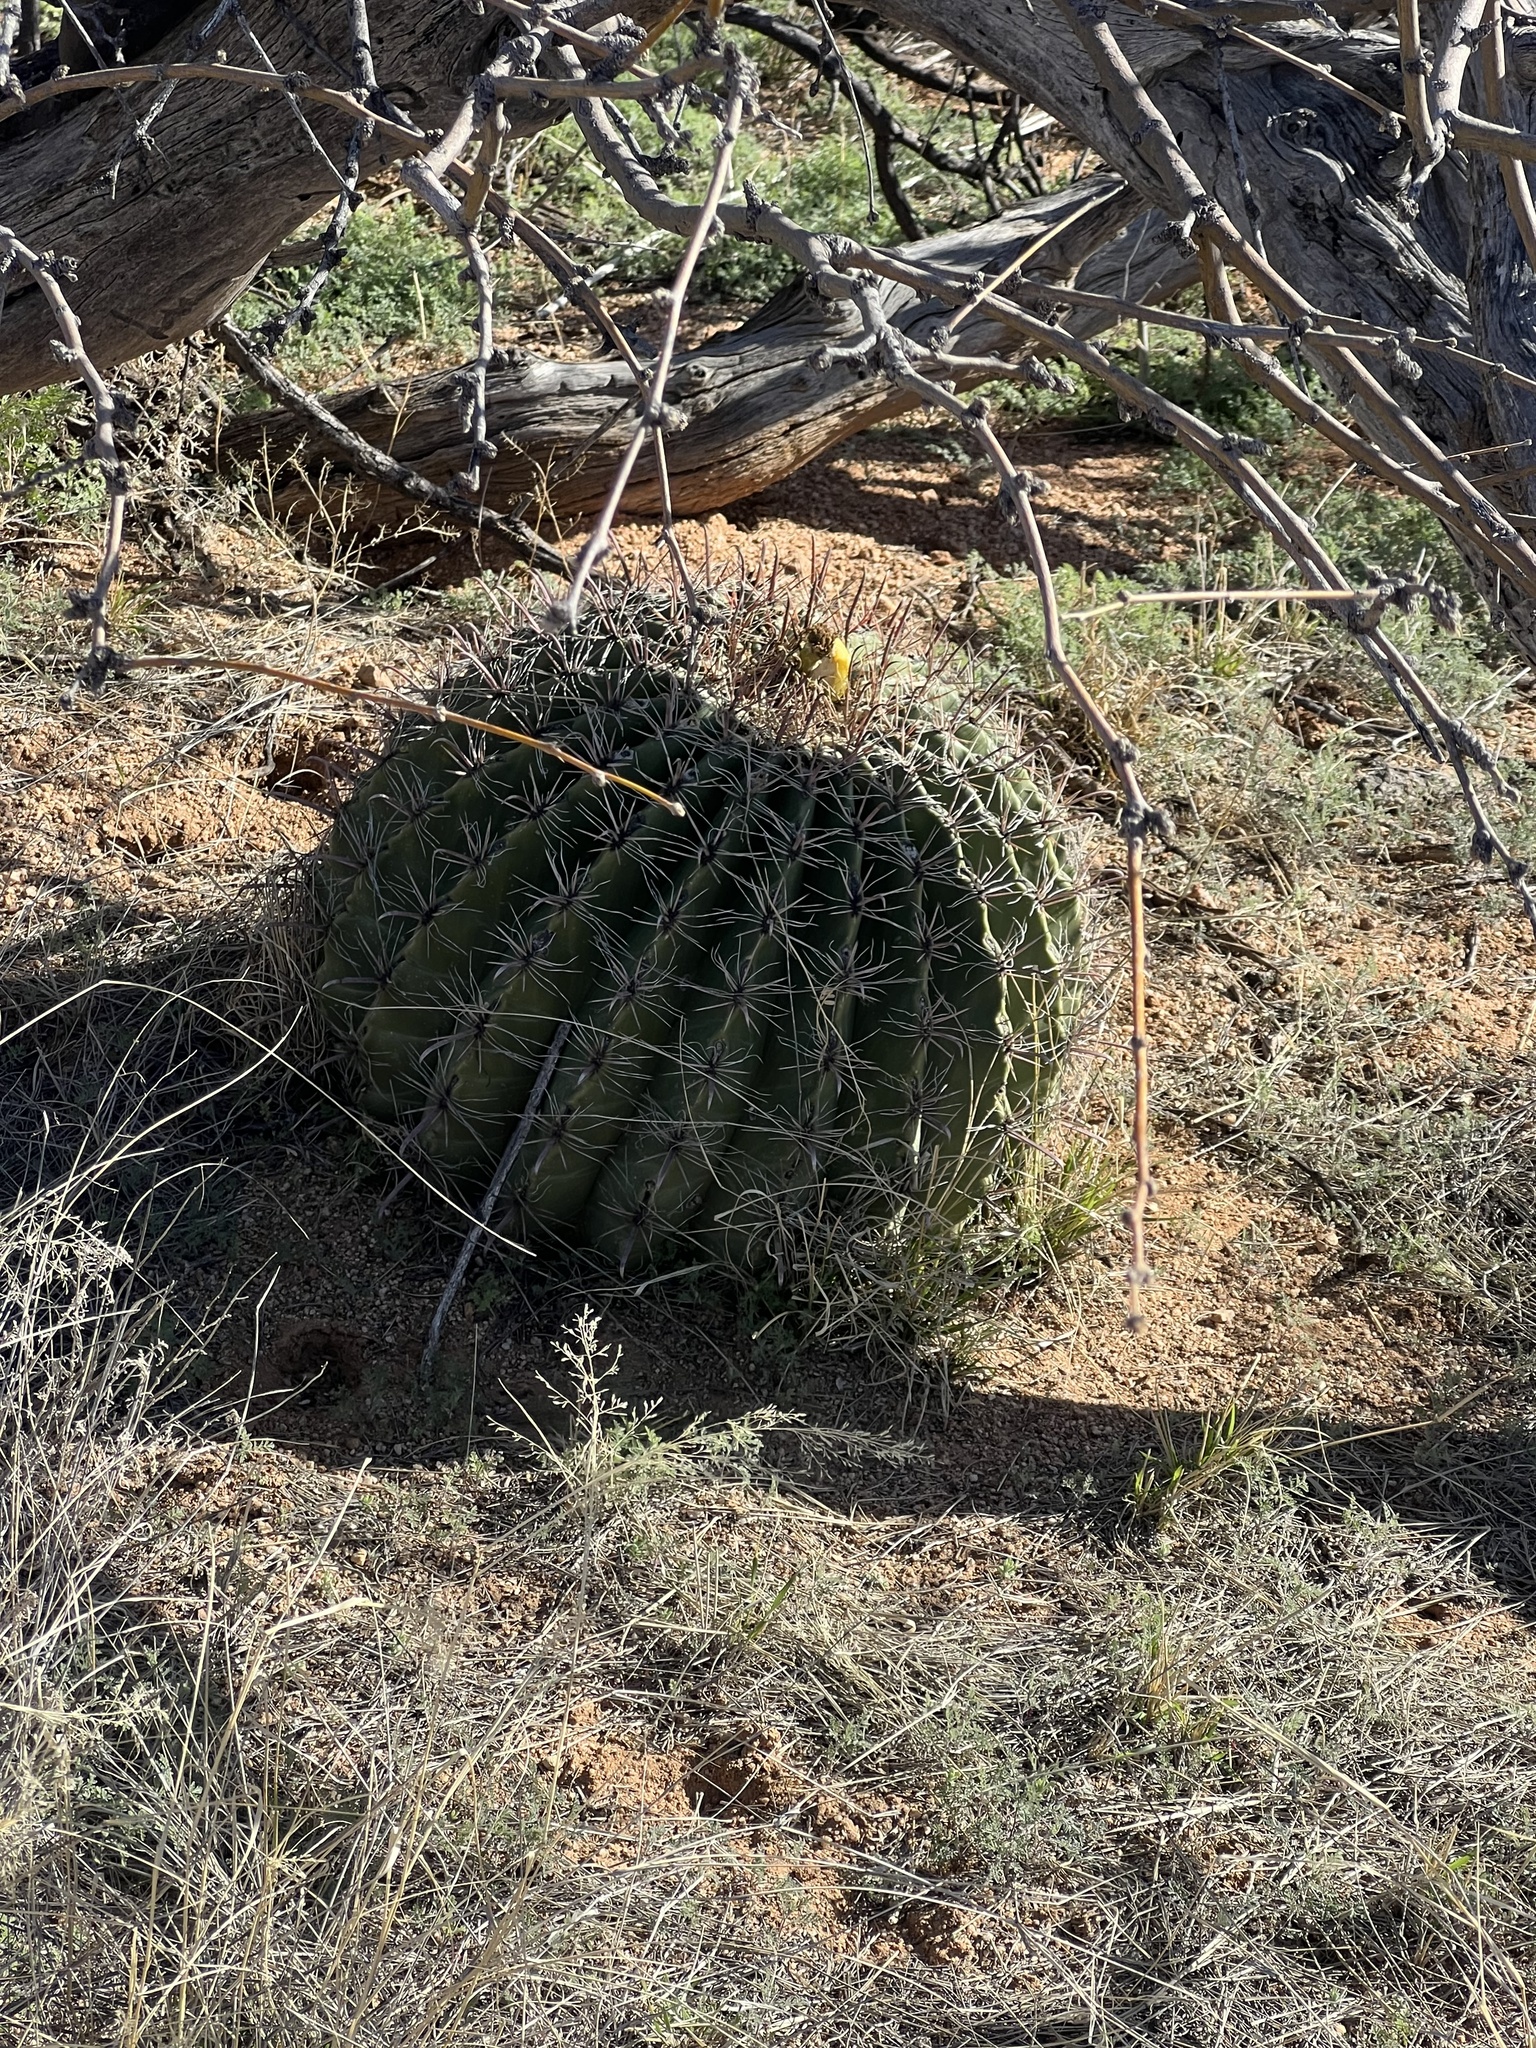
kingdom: Plantae
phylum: Tracheophyta
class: Magnoliopsida
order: Caryophyllales
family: Cactaceae
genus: Ferocactus
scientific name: Ferocactus wislizeni
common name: Candy barrel cactus
